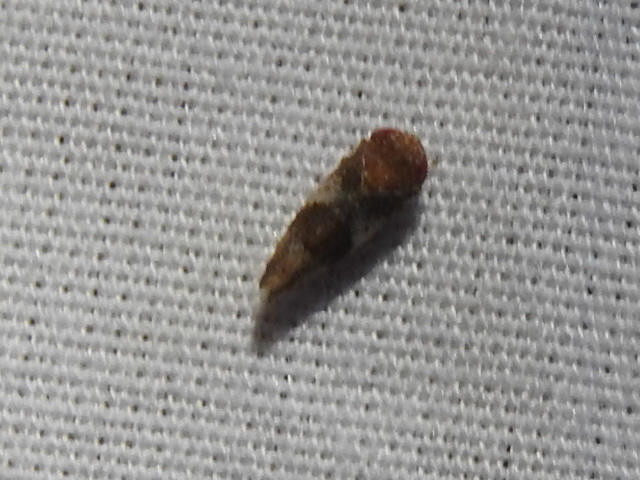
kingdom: Animalia
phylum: Arthropoda
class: Insecta
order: Hemiptera
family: Cicadellidae
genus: Norvellina
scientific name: Norvellina helenae
